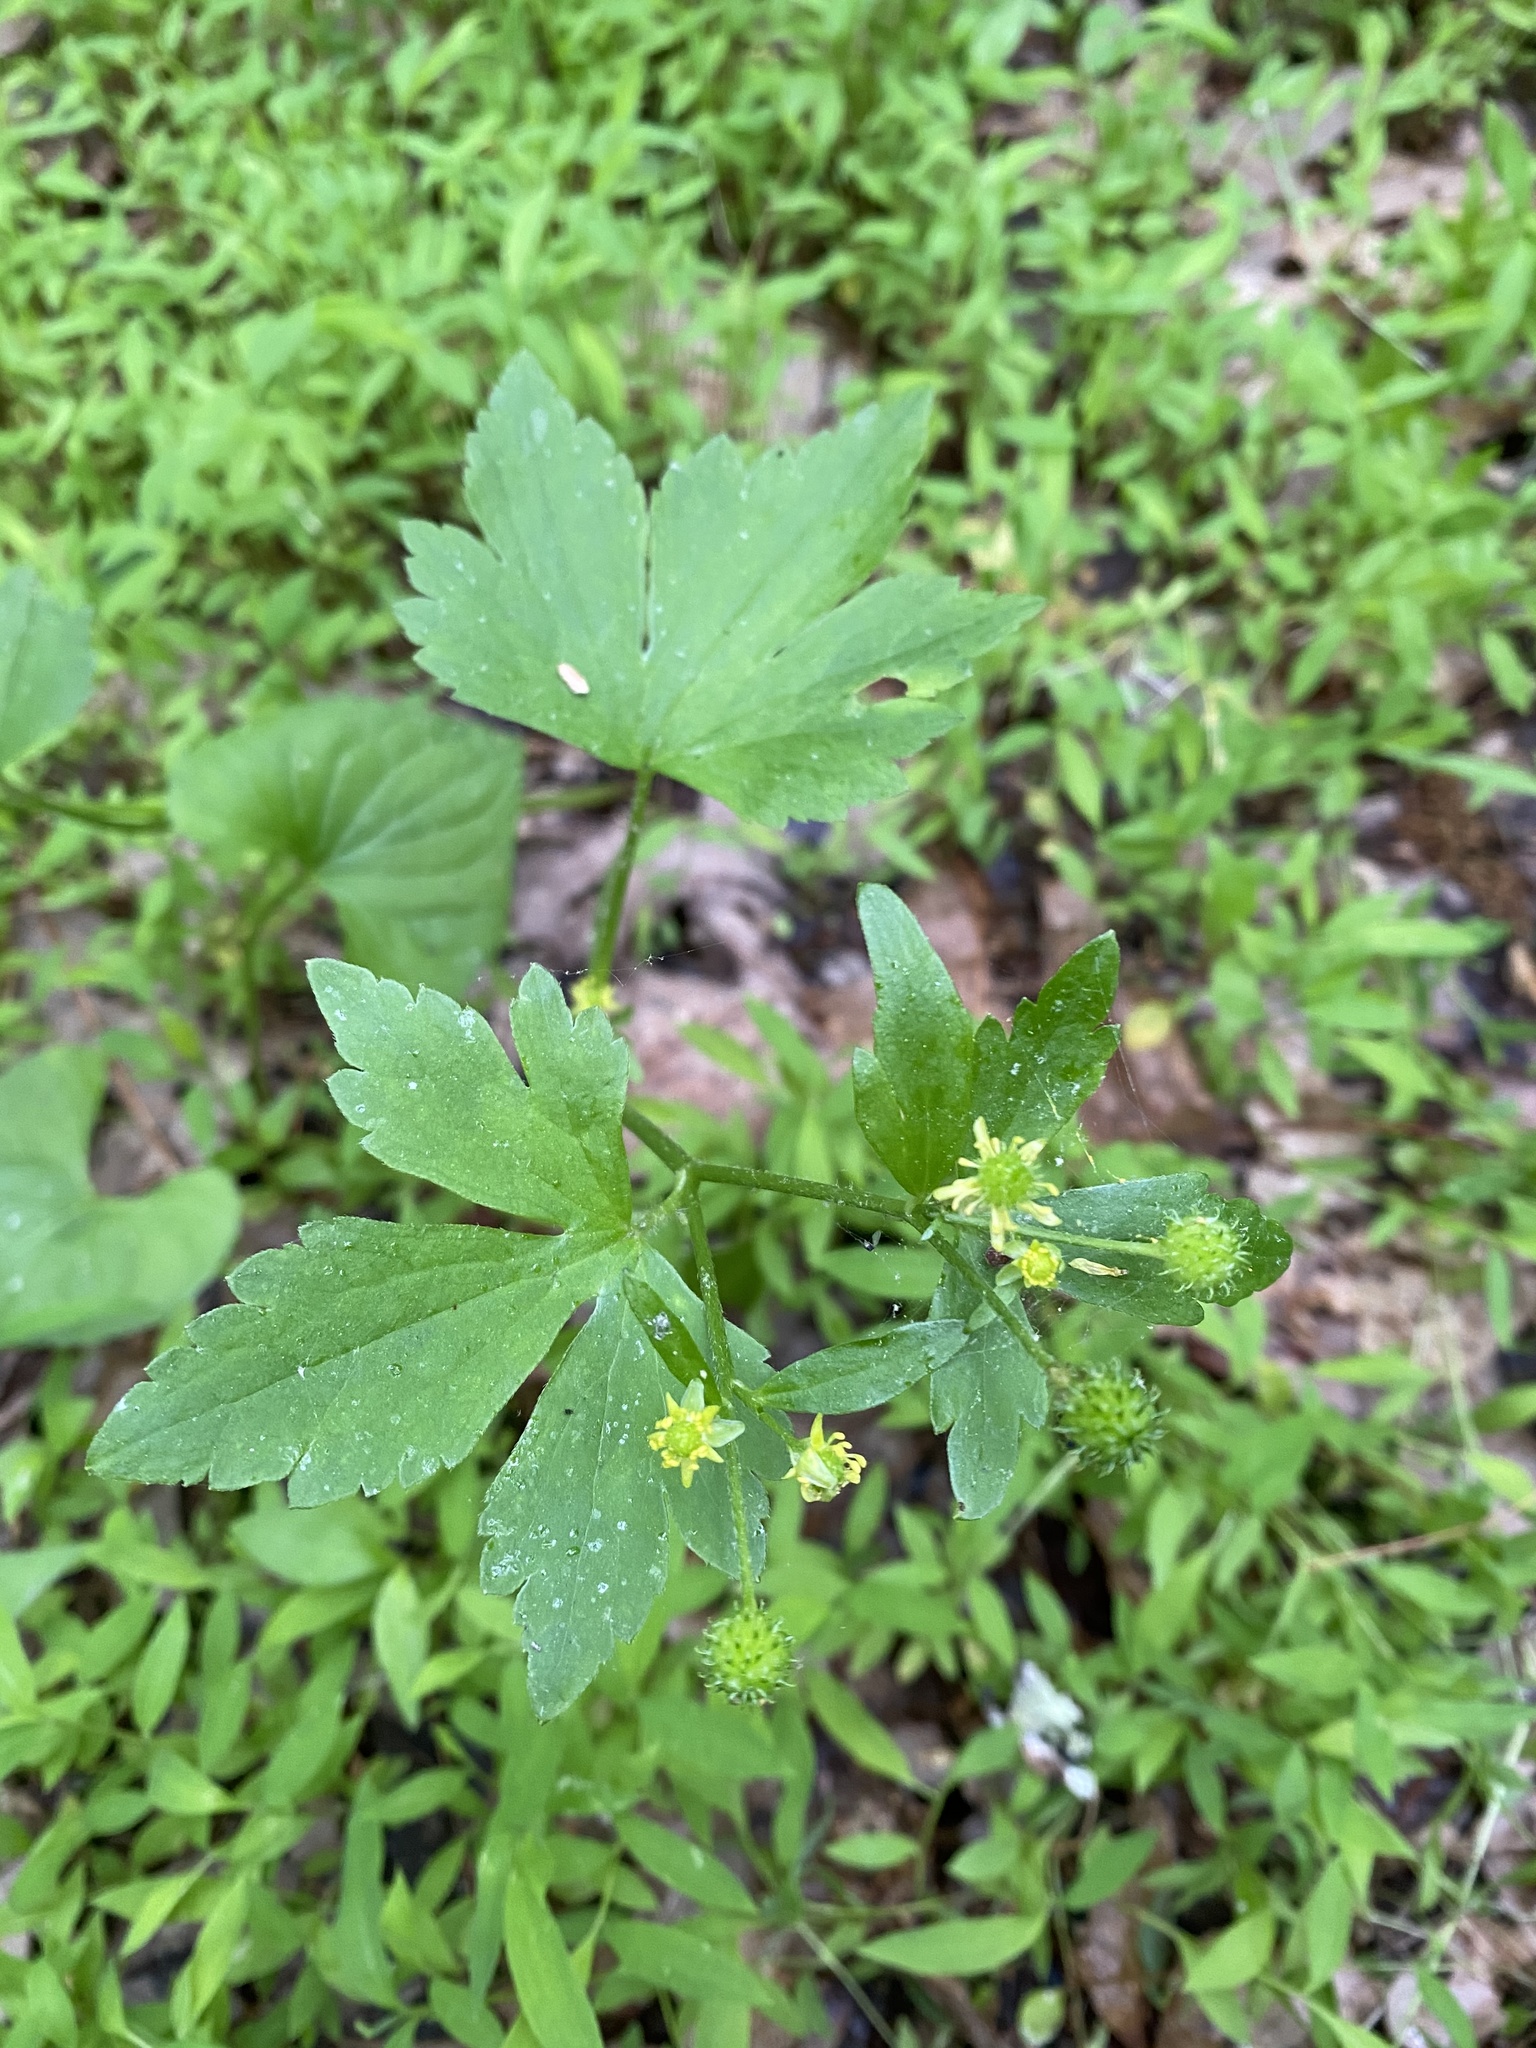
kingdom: Plantae
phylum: Tracheophyta
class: Magnoliopsida
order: Ranunculales
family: Ranunculaceae
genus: Ranunculus
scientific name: Ranunculus recurvatus
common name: Blisterwort
